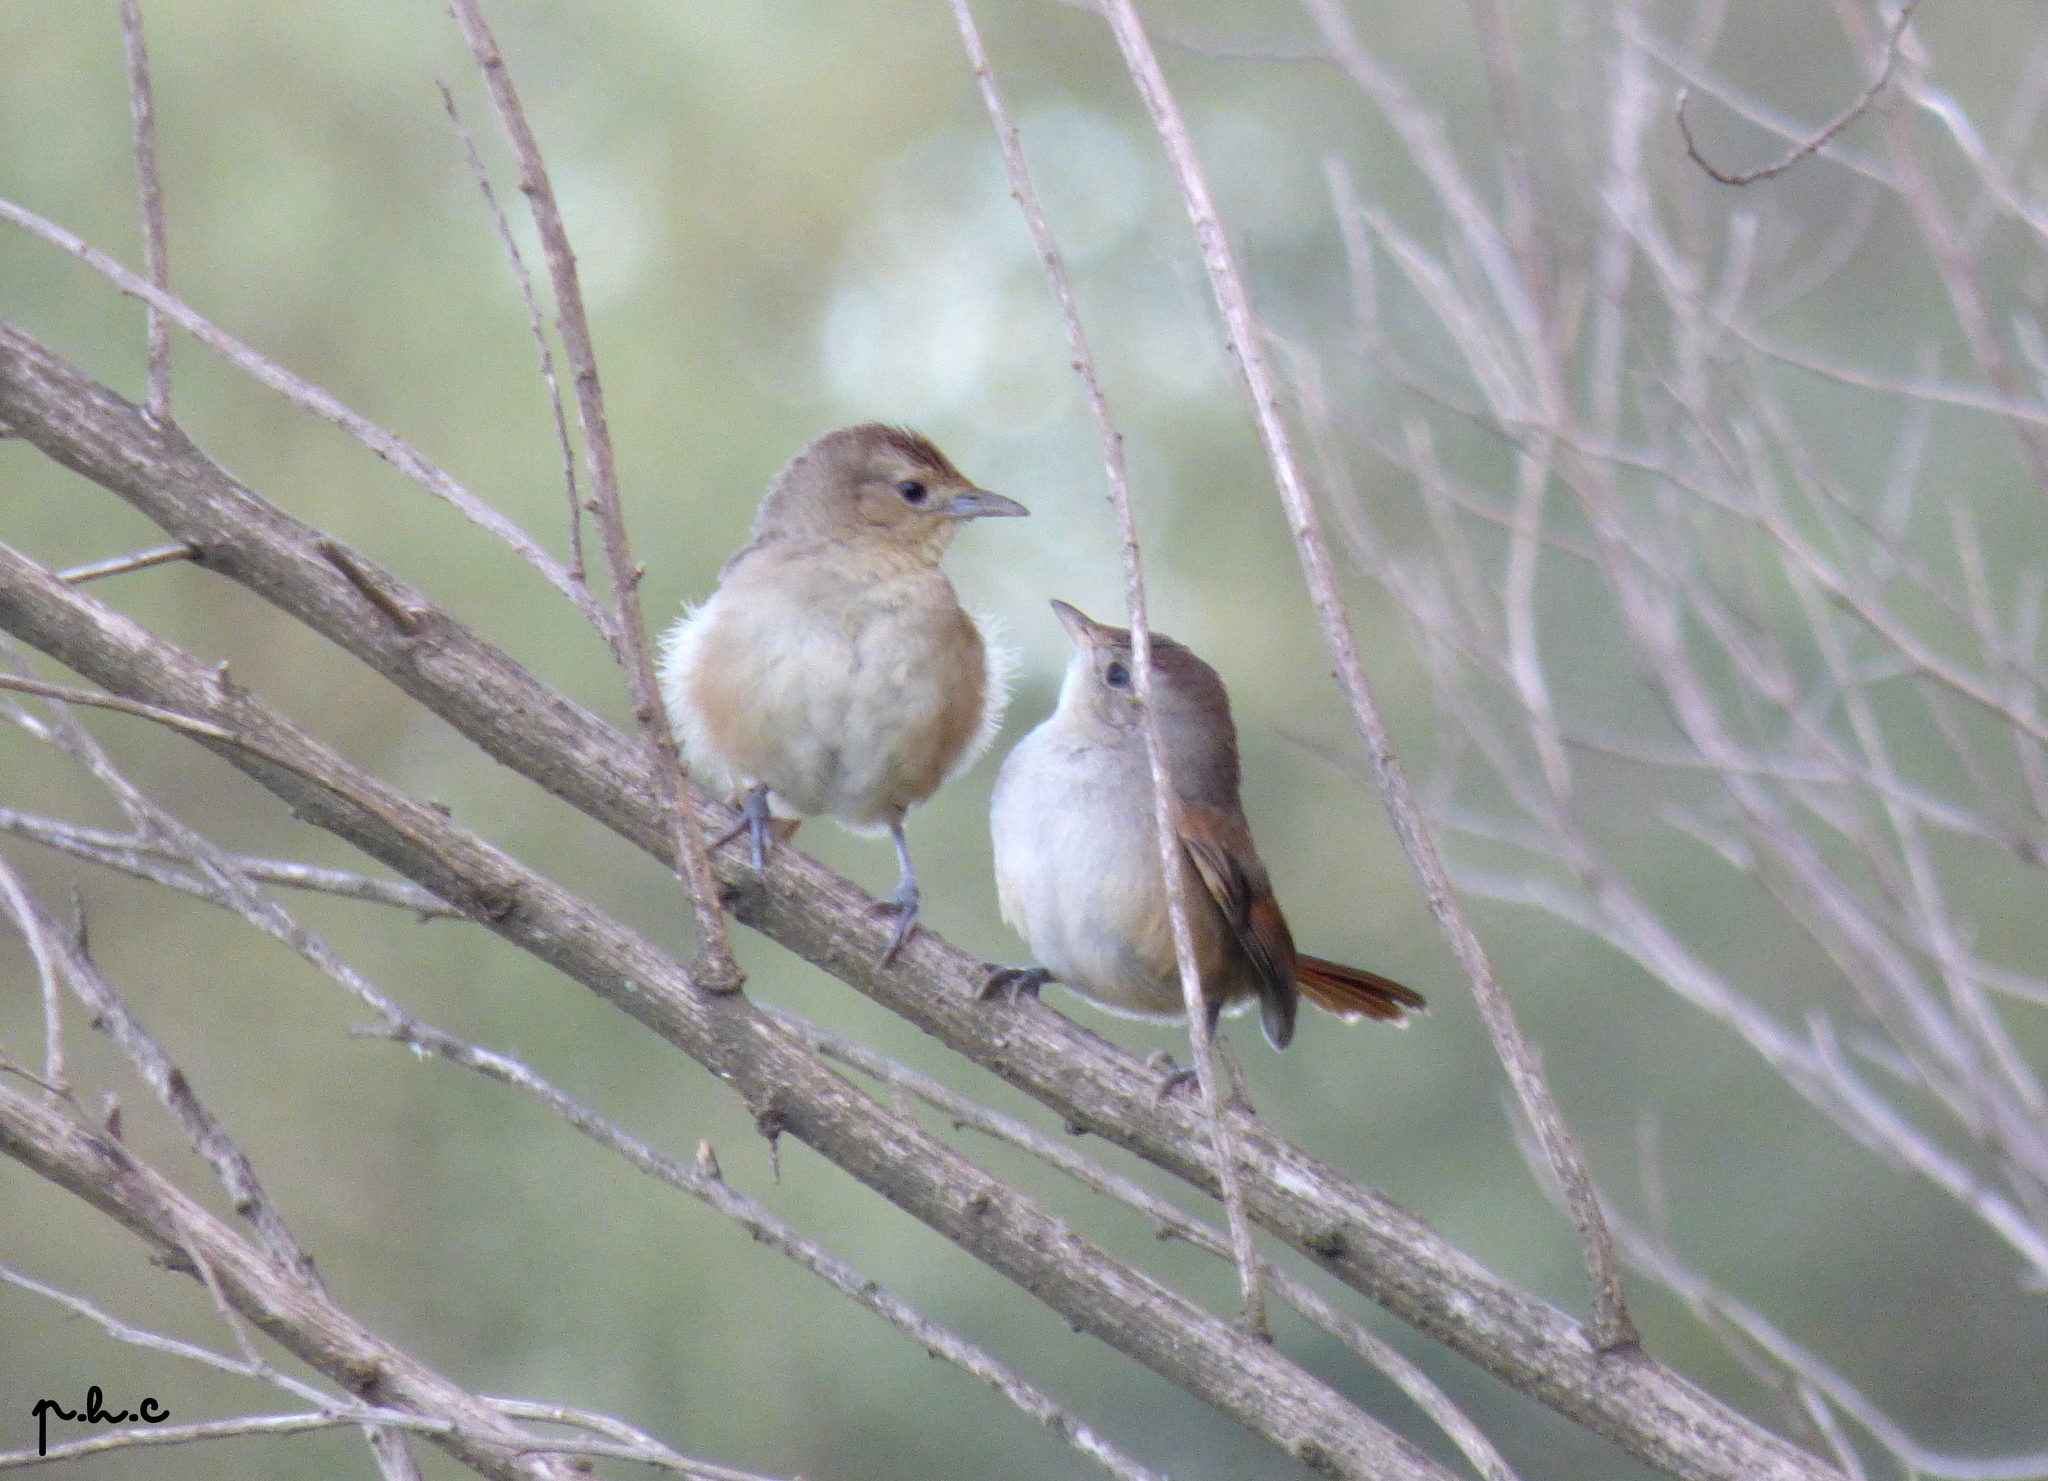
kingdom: Animalia
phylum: Chordata
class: Aves
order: Passeriformes
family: Furnariidae
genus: Phacellodomus
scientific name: Phacellodomus sibilatrix
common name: Little thornbird
